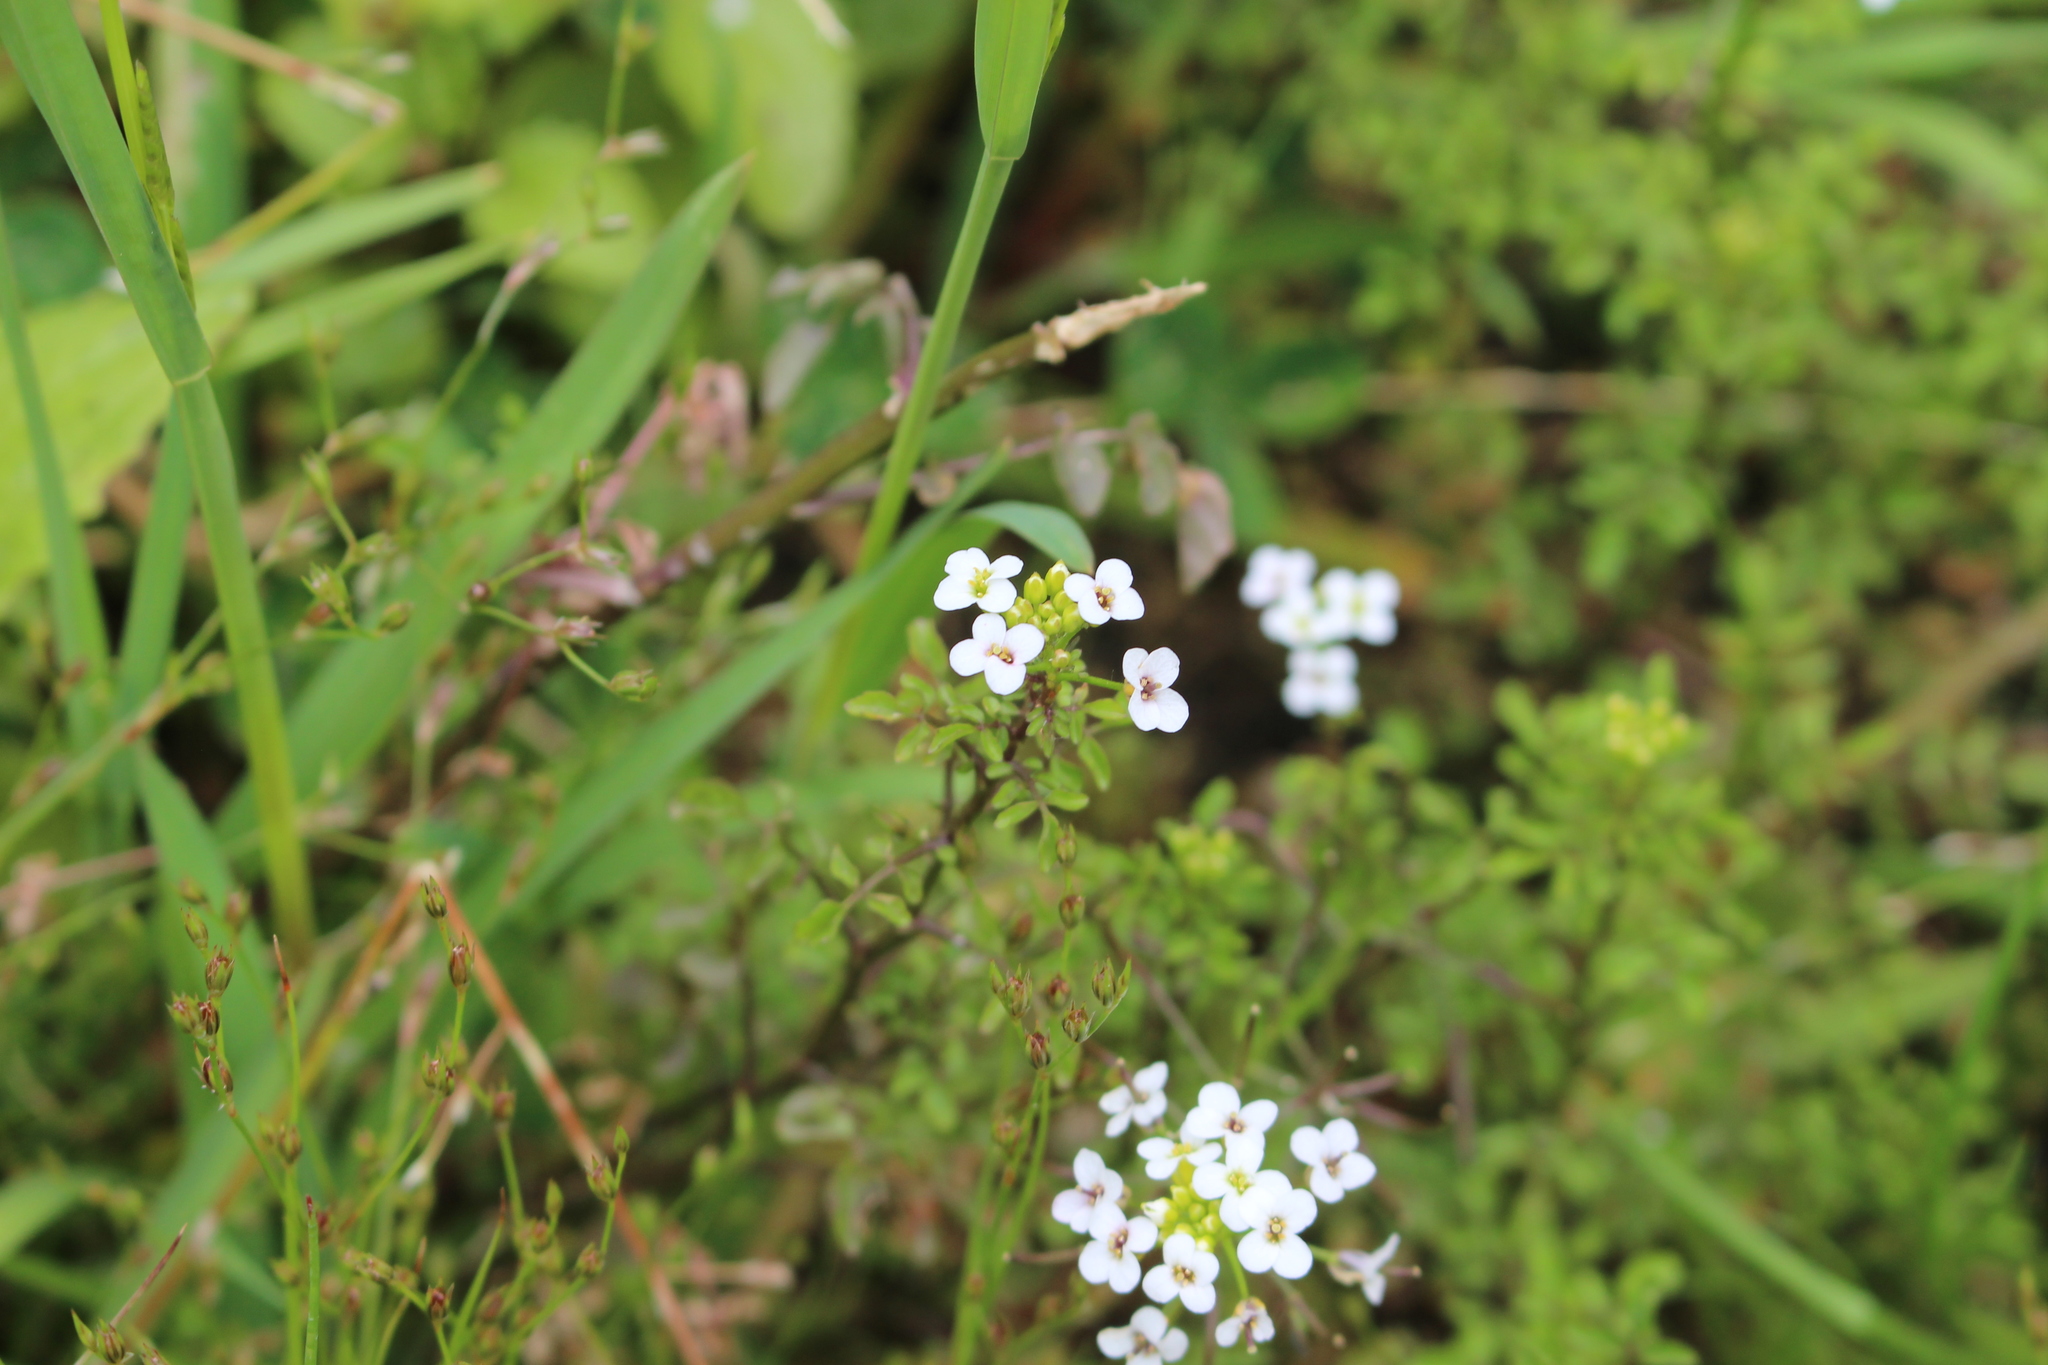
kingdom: Plantae
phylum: Tracheophyta
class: Magnoliopsida
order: Brassicales
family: Brassicaceae
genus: Nasturtium
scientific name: Nasturtium officinale
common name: Watercress
